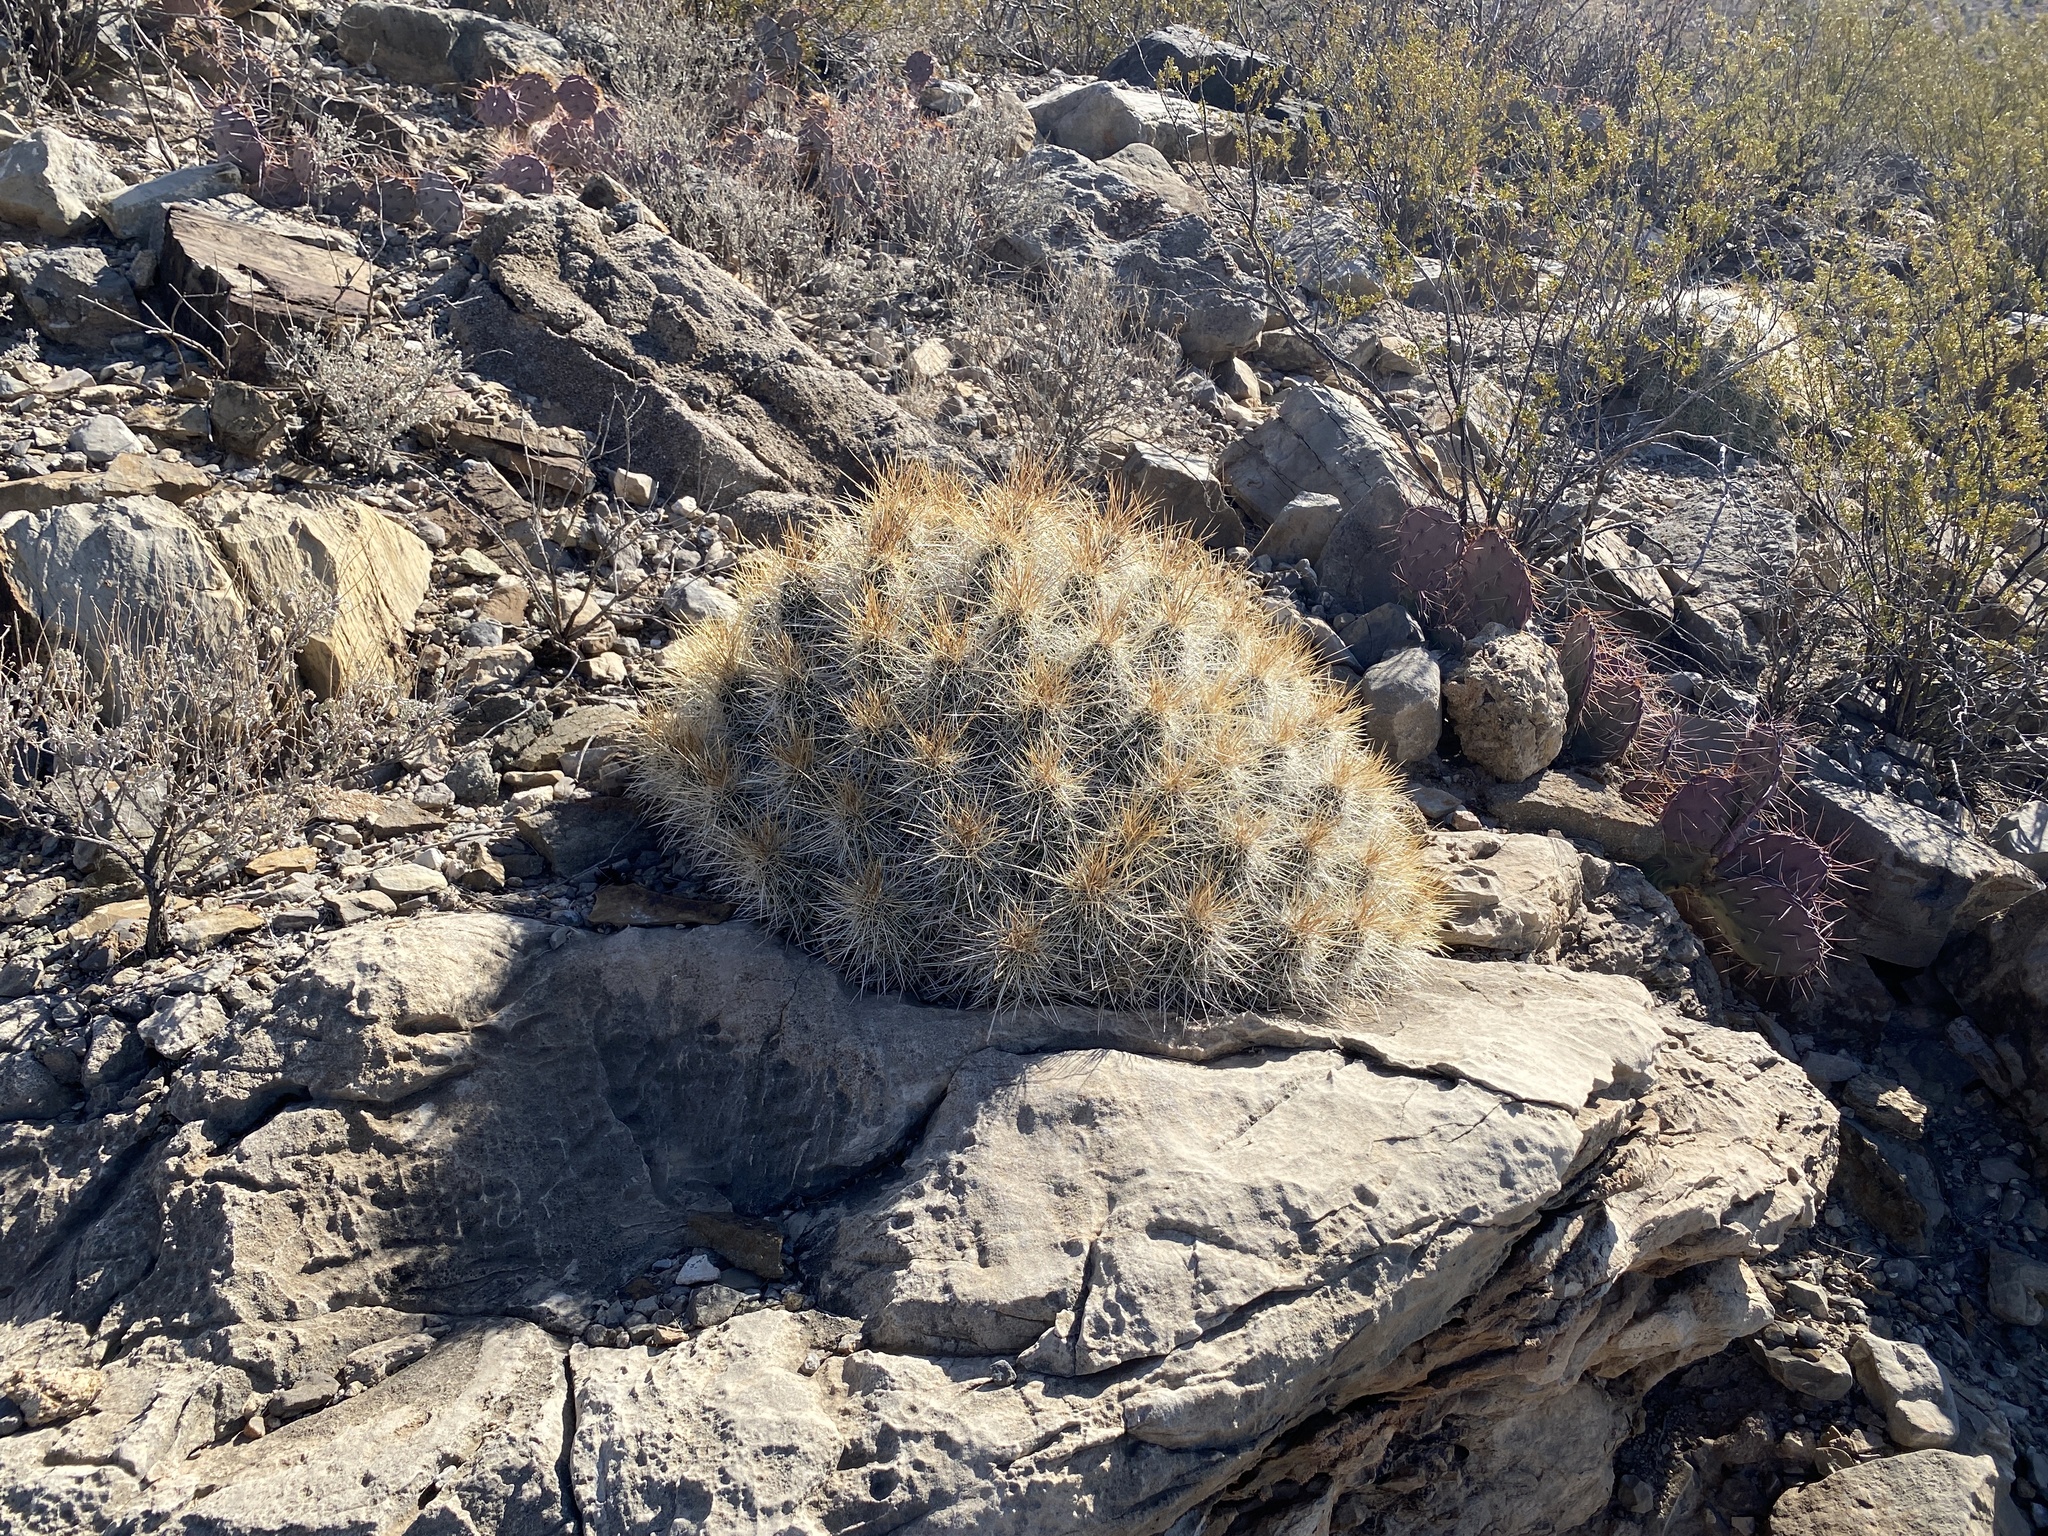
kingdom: Plantae
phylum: Tracheophyta
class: Magnoliopsida
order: Caryophyllales
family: Cactaceae
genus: Echinocereus
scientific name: Echinocereus stramineus
